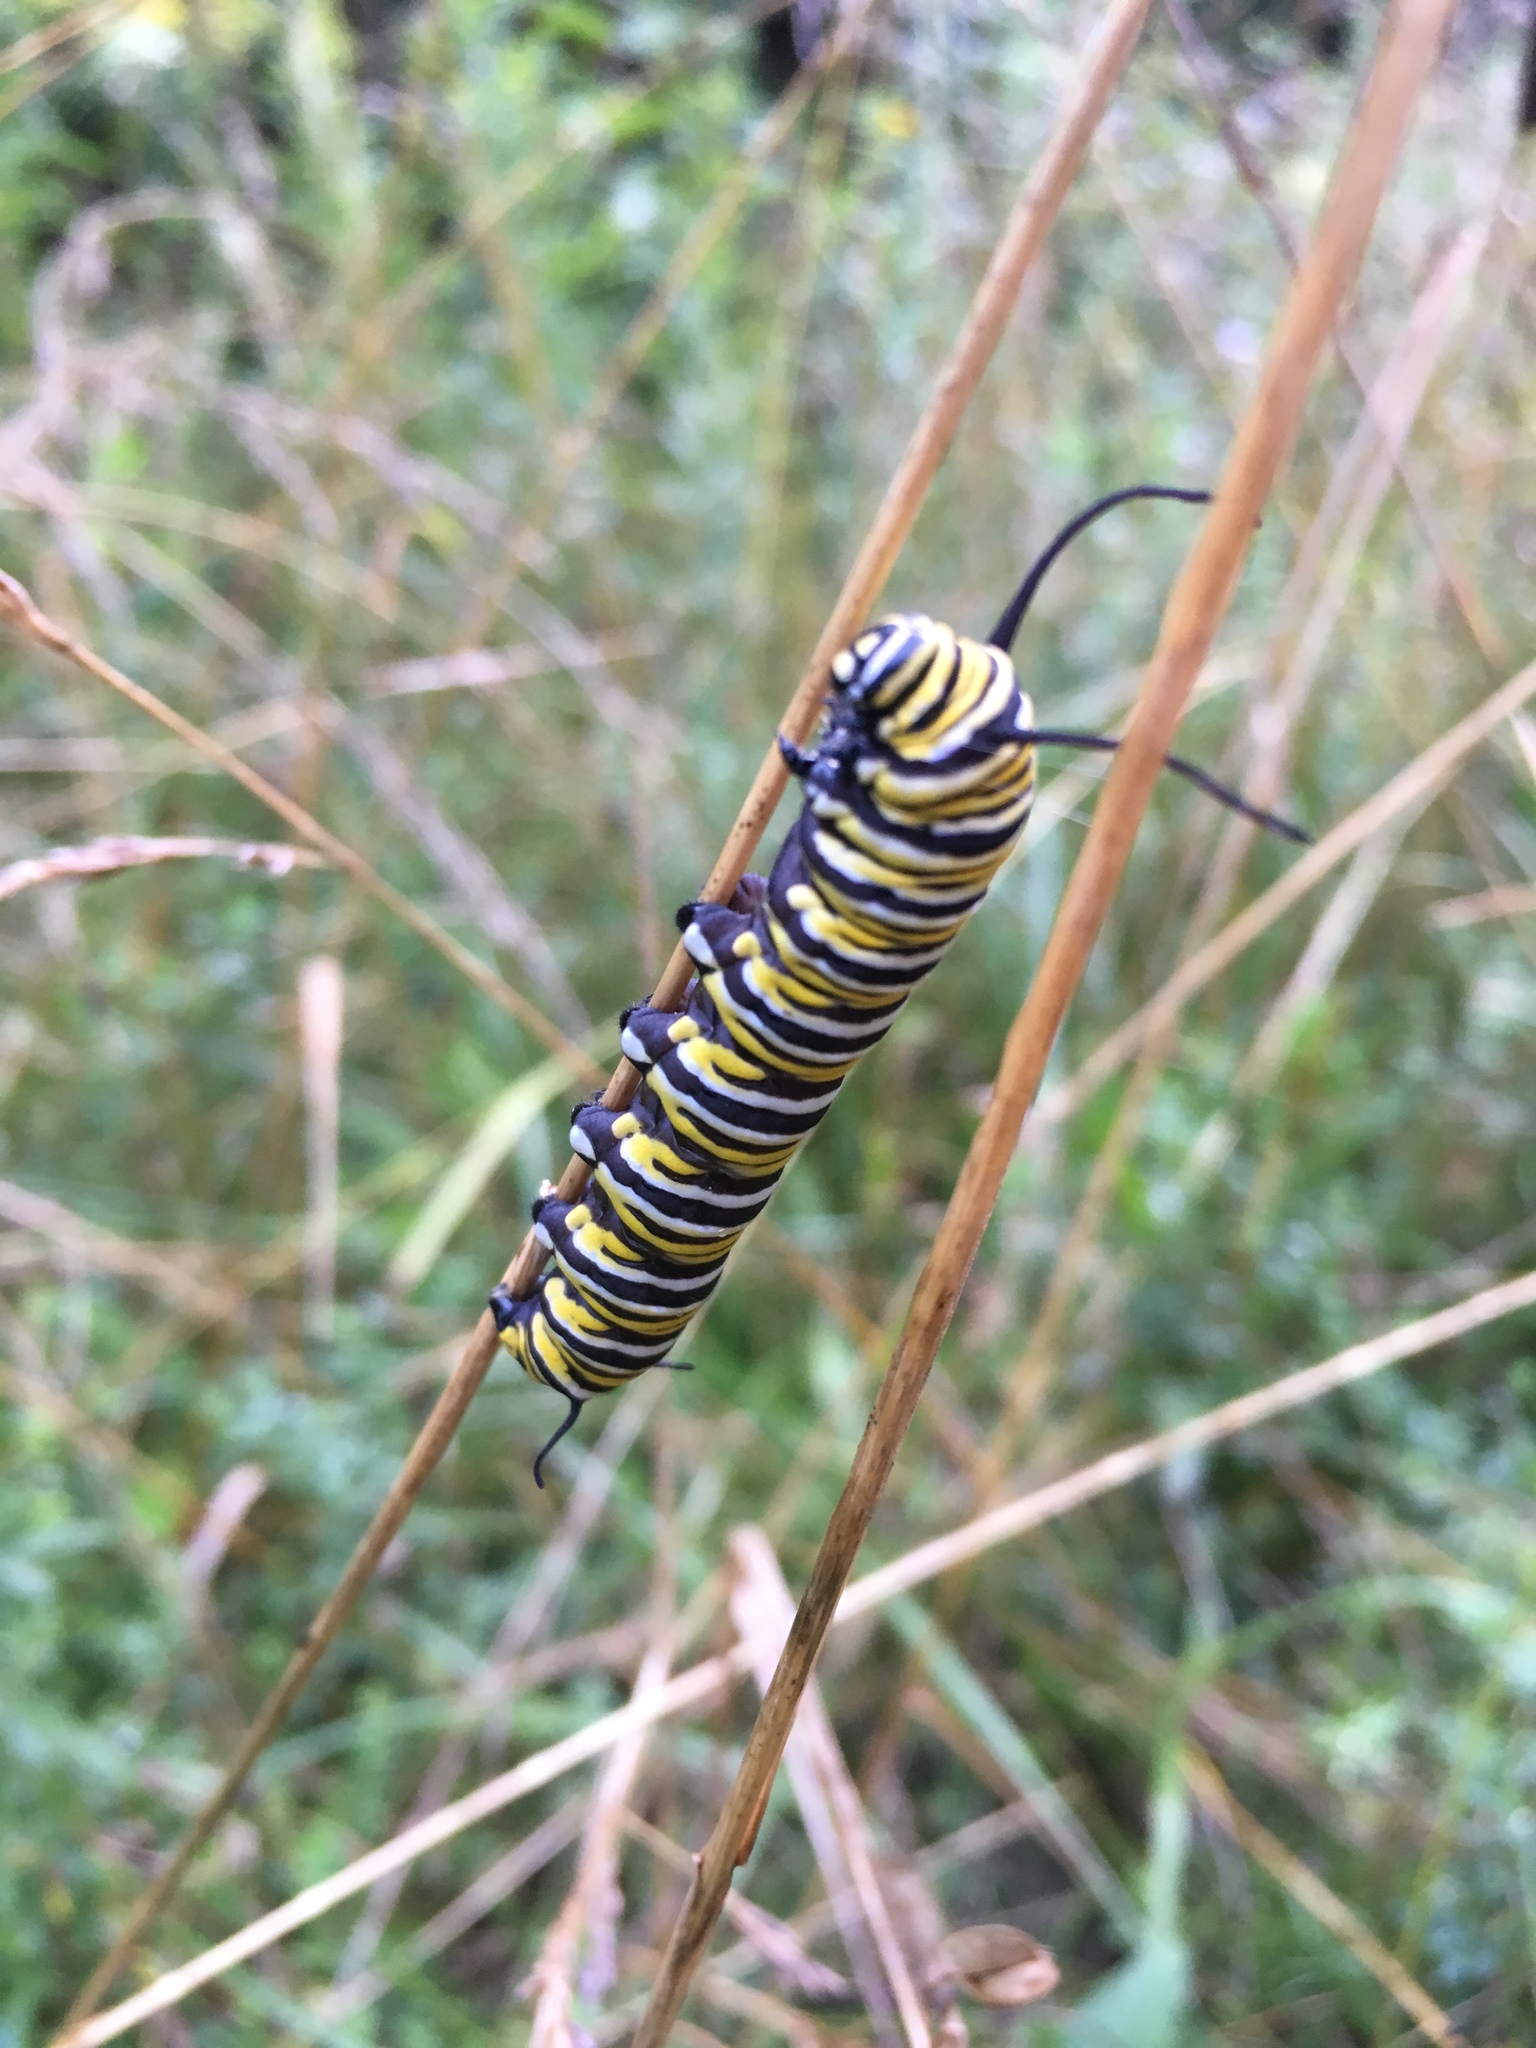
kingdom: Animalia
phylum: Arthropoda
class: Insecta
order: Lepidoptera
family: Nymphalidae
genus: Danaus
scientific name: Danaus plexippus
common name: Monarch
